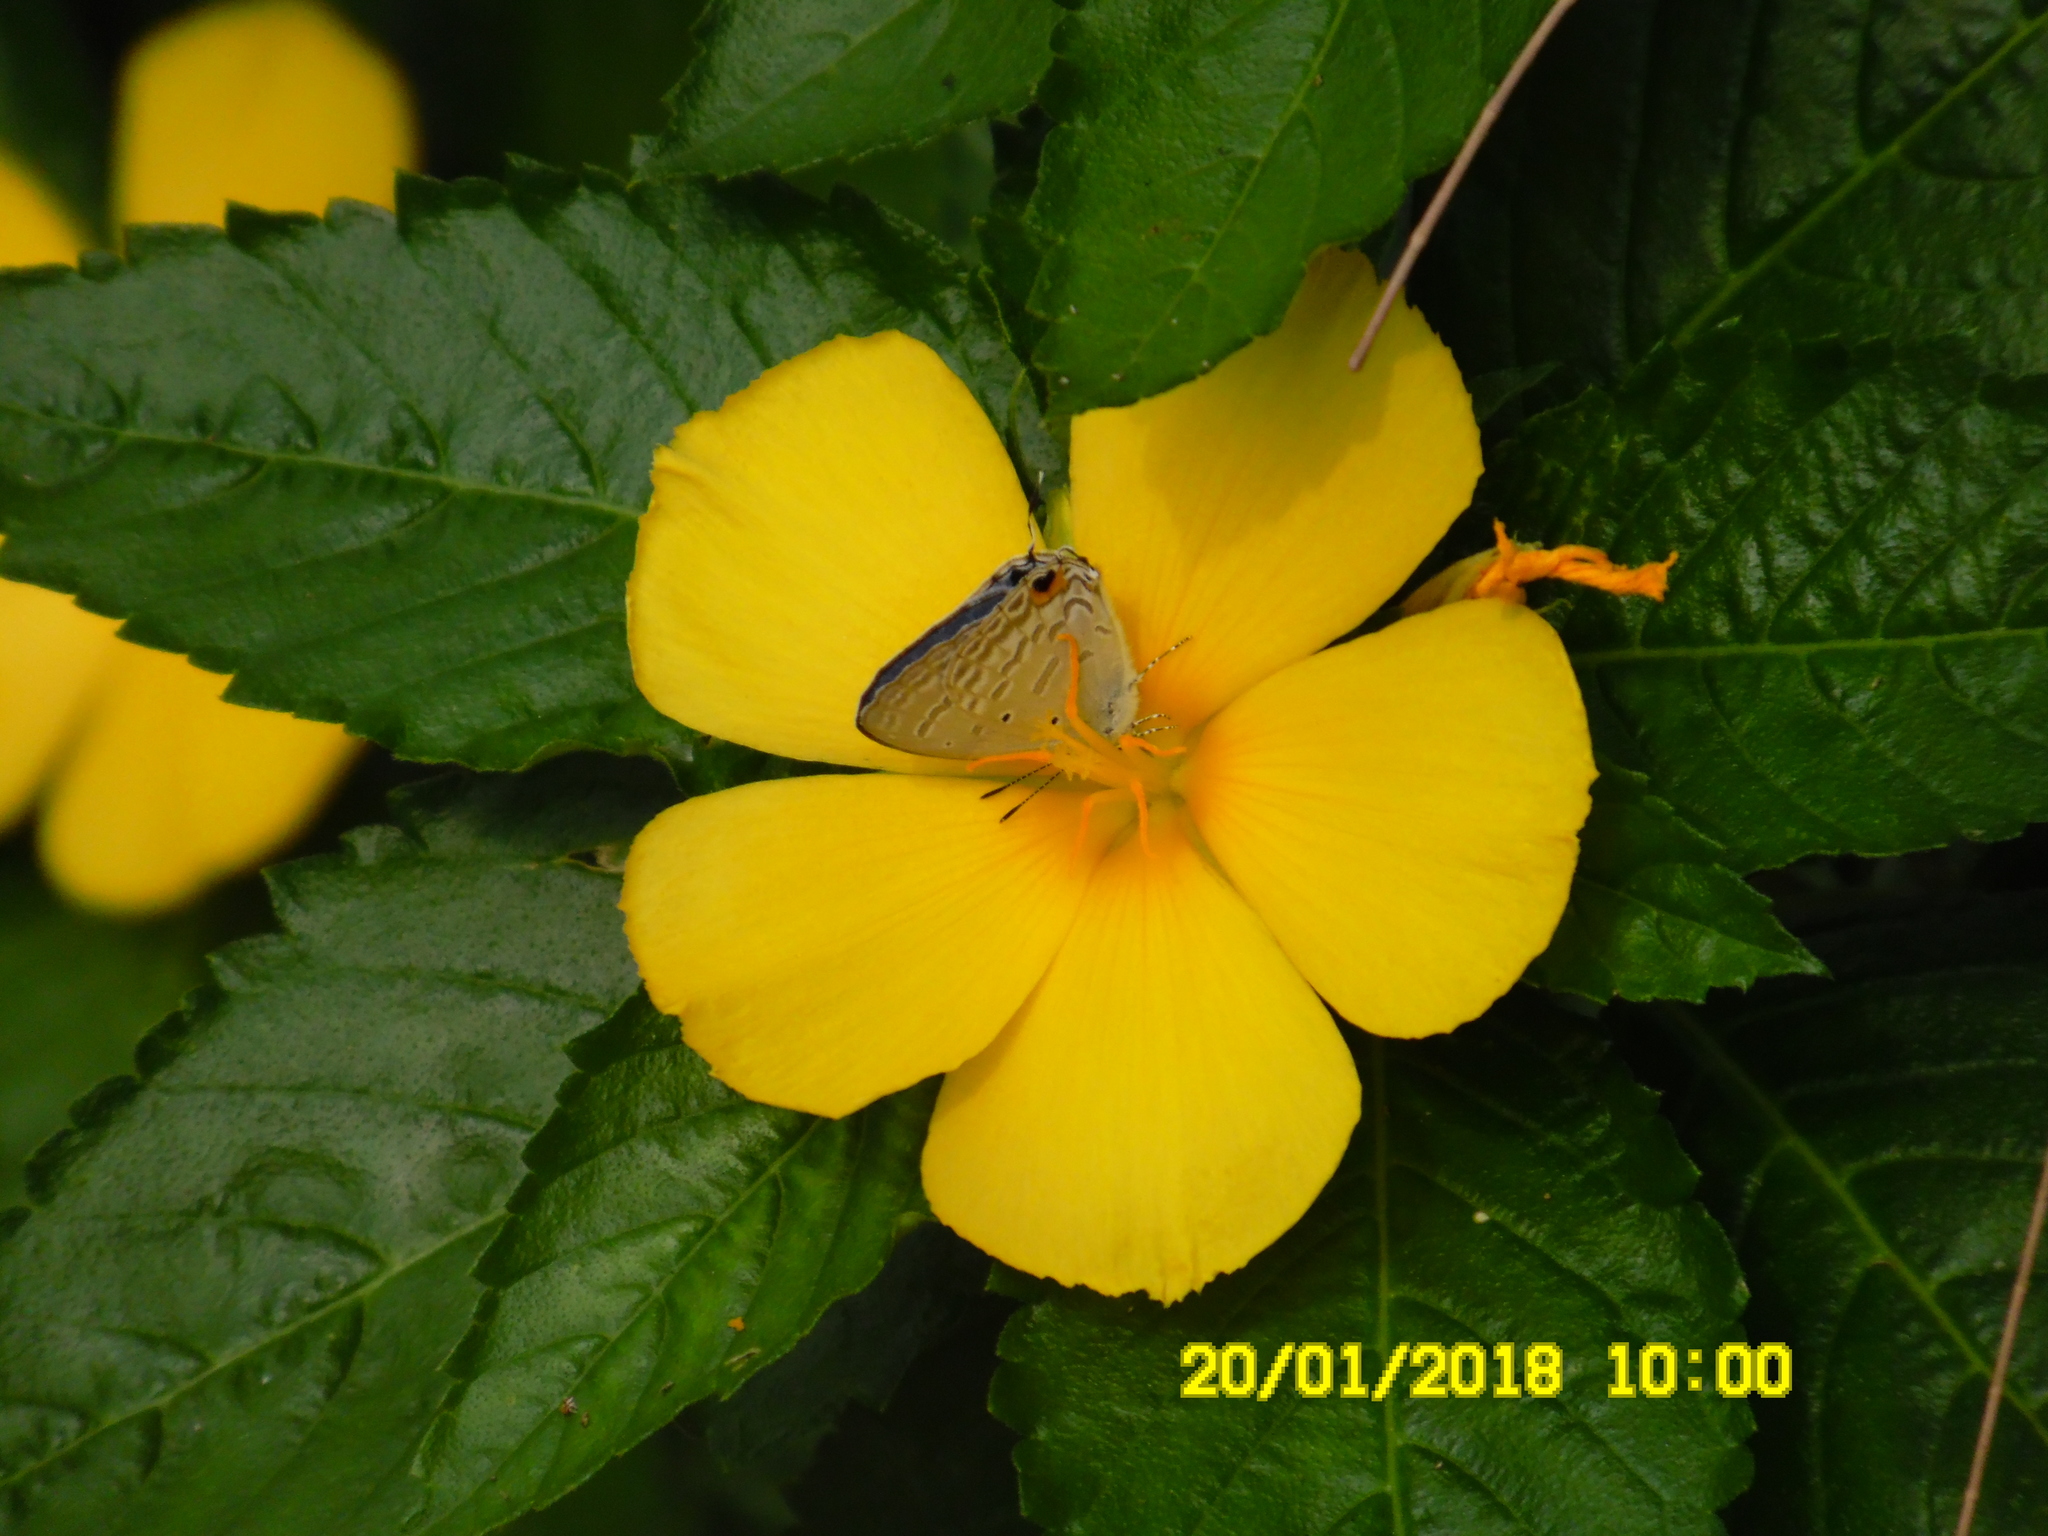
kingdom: Plantae
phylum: Tracheophyta
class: Magnoliopsida
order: Malpighiales
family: Turneraceae
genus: Turnera
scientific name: Turnera ulmifolia
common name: Ramgoat dashalong
